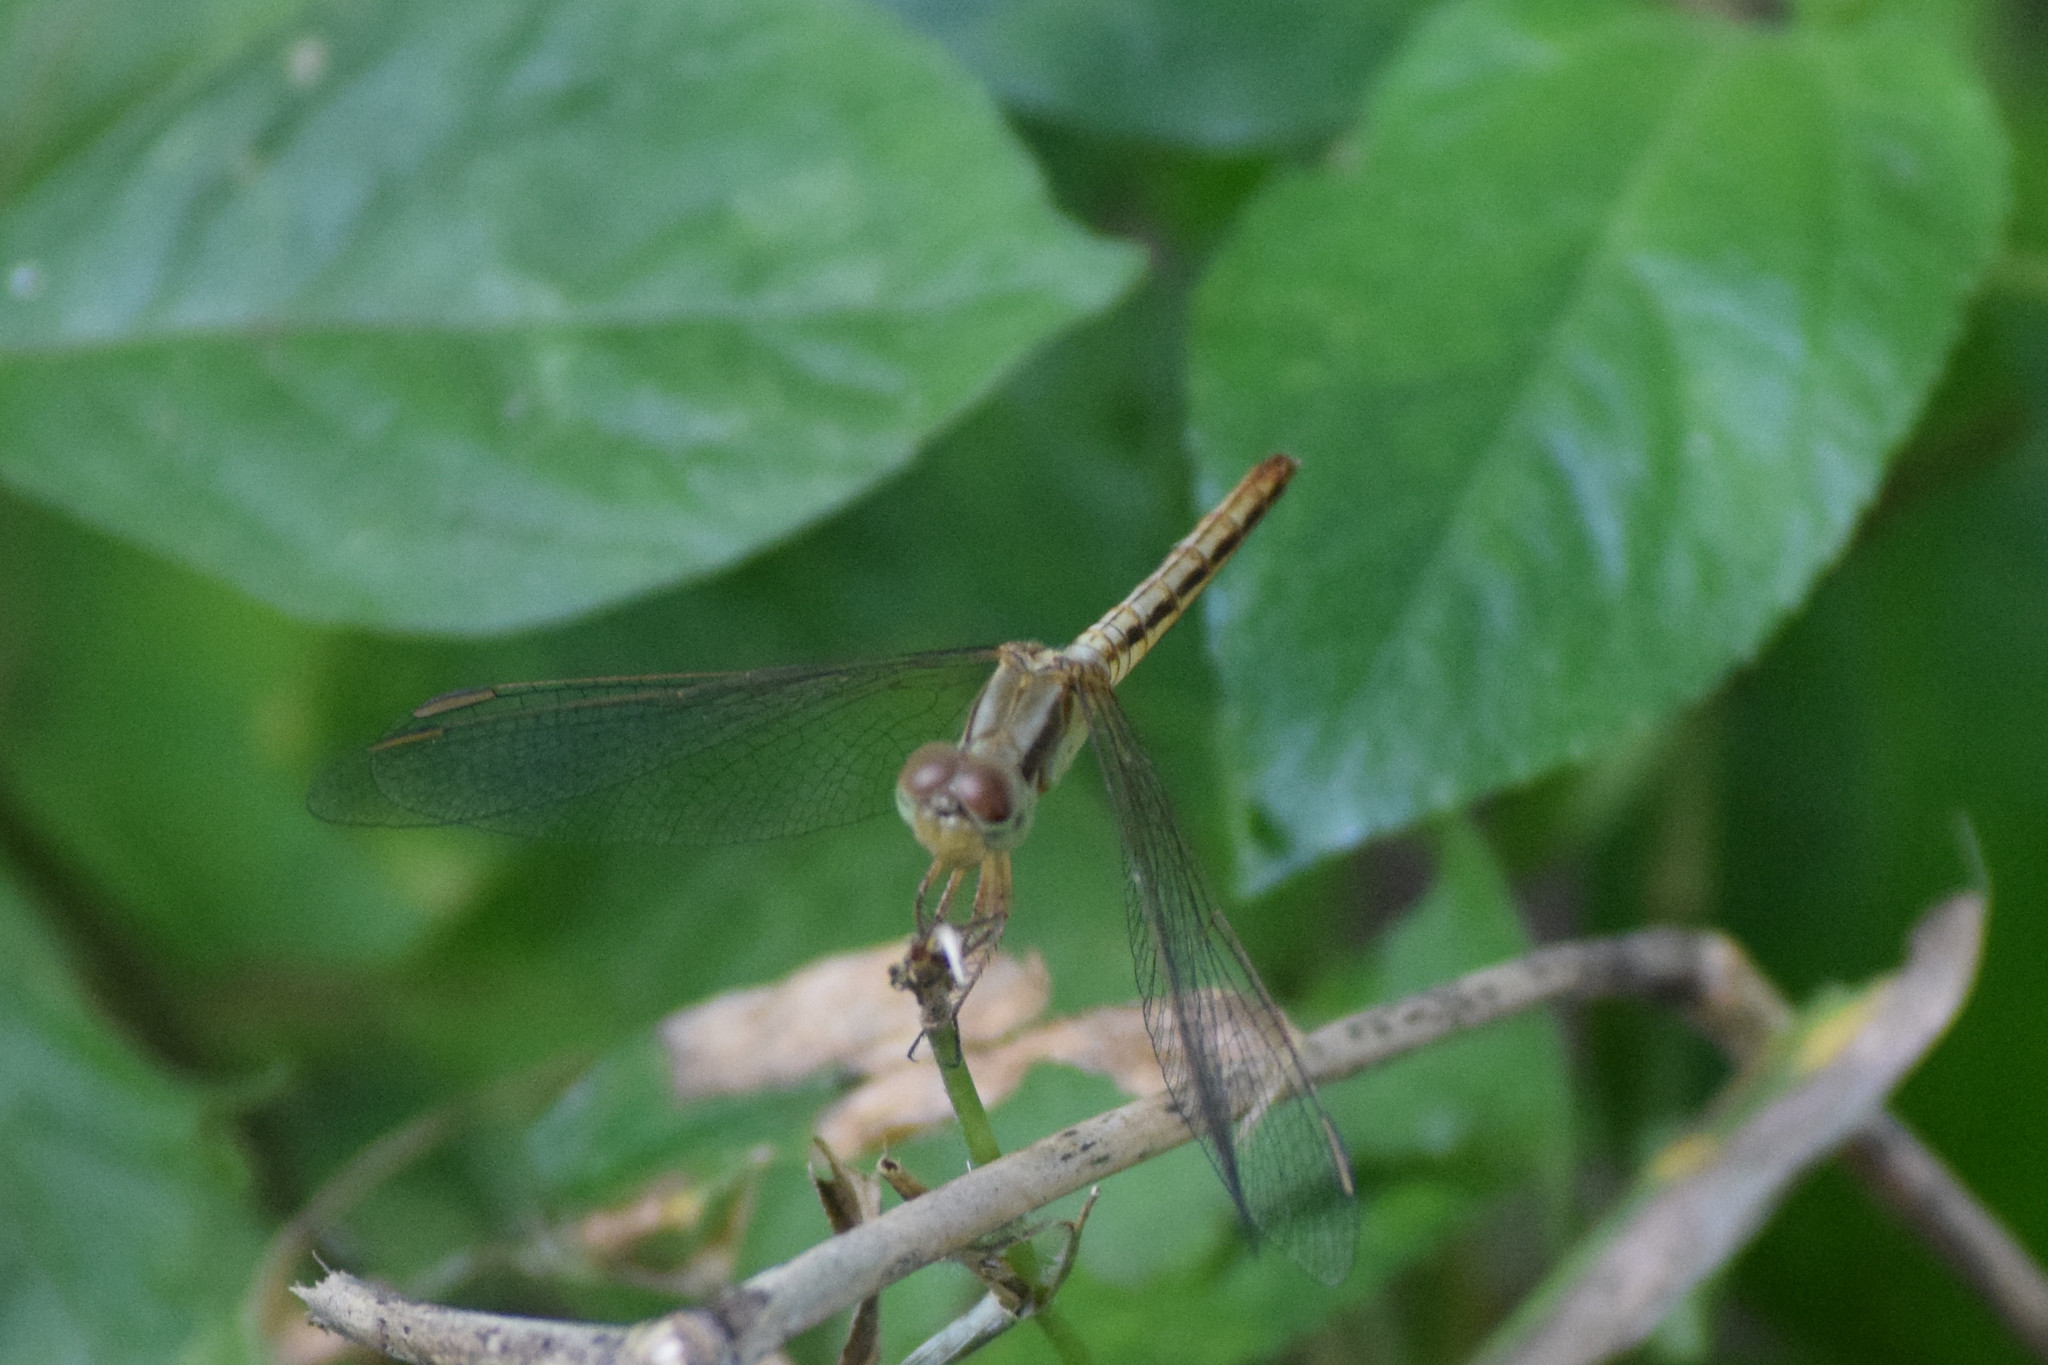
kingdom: Animalia
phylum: Arthropoda
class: Insecta
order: Odonata
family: Libellulidae
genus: Neurothemis
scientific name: Neurothemis intermedia
